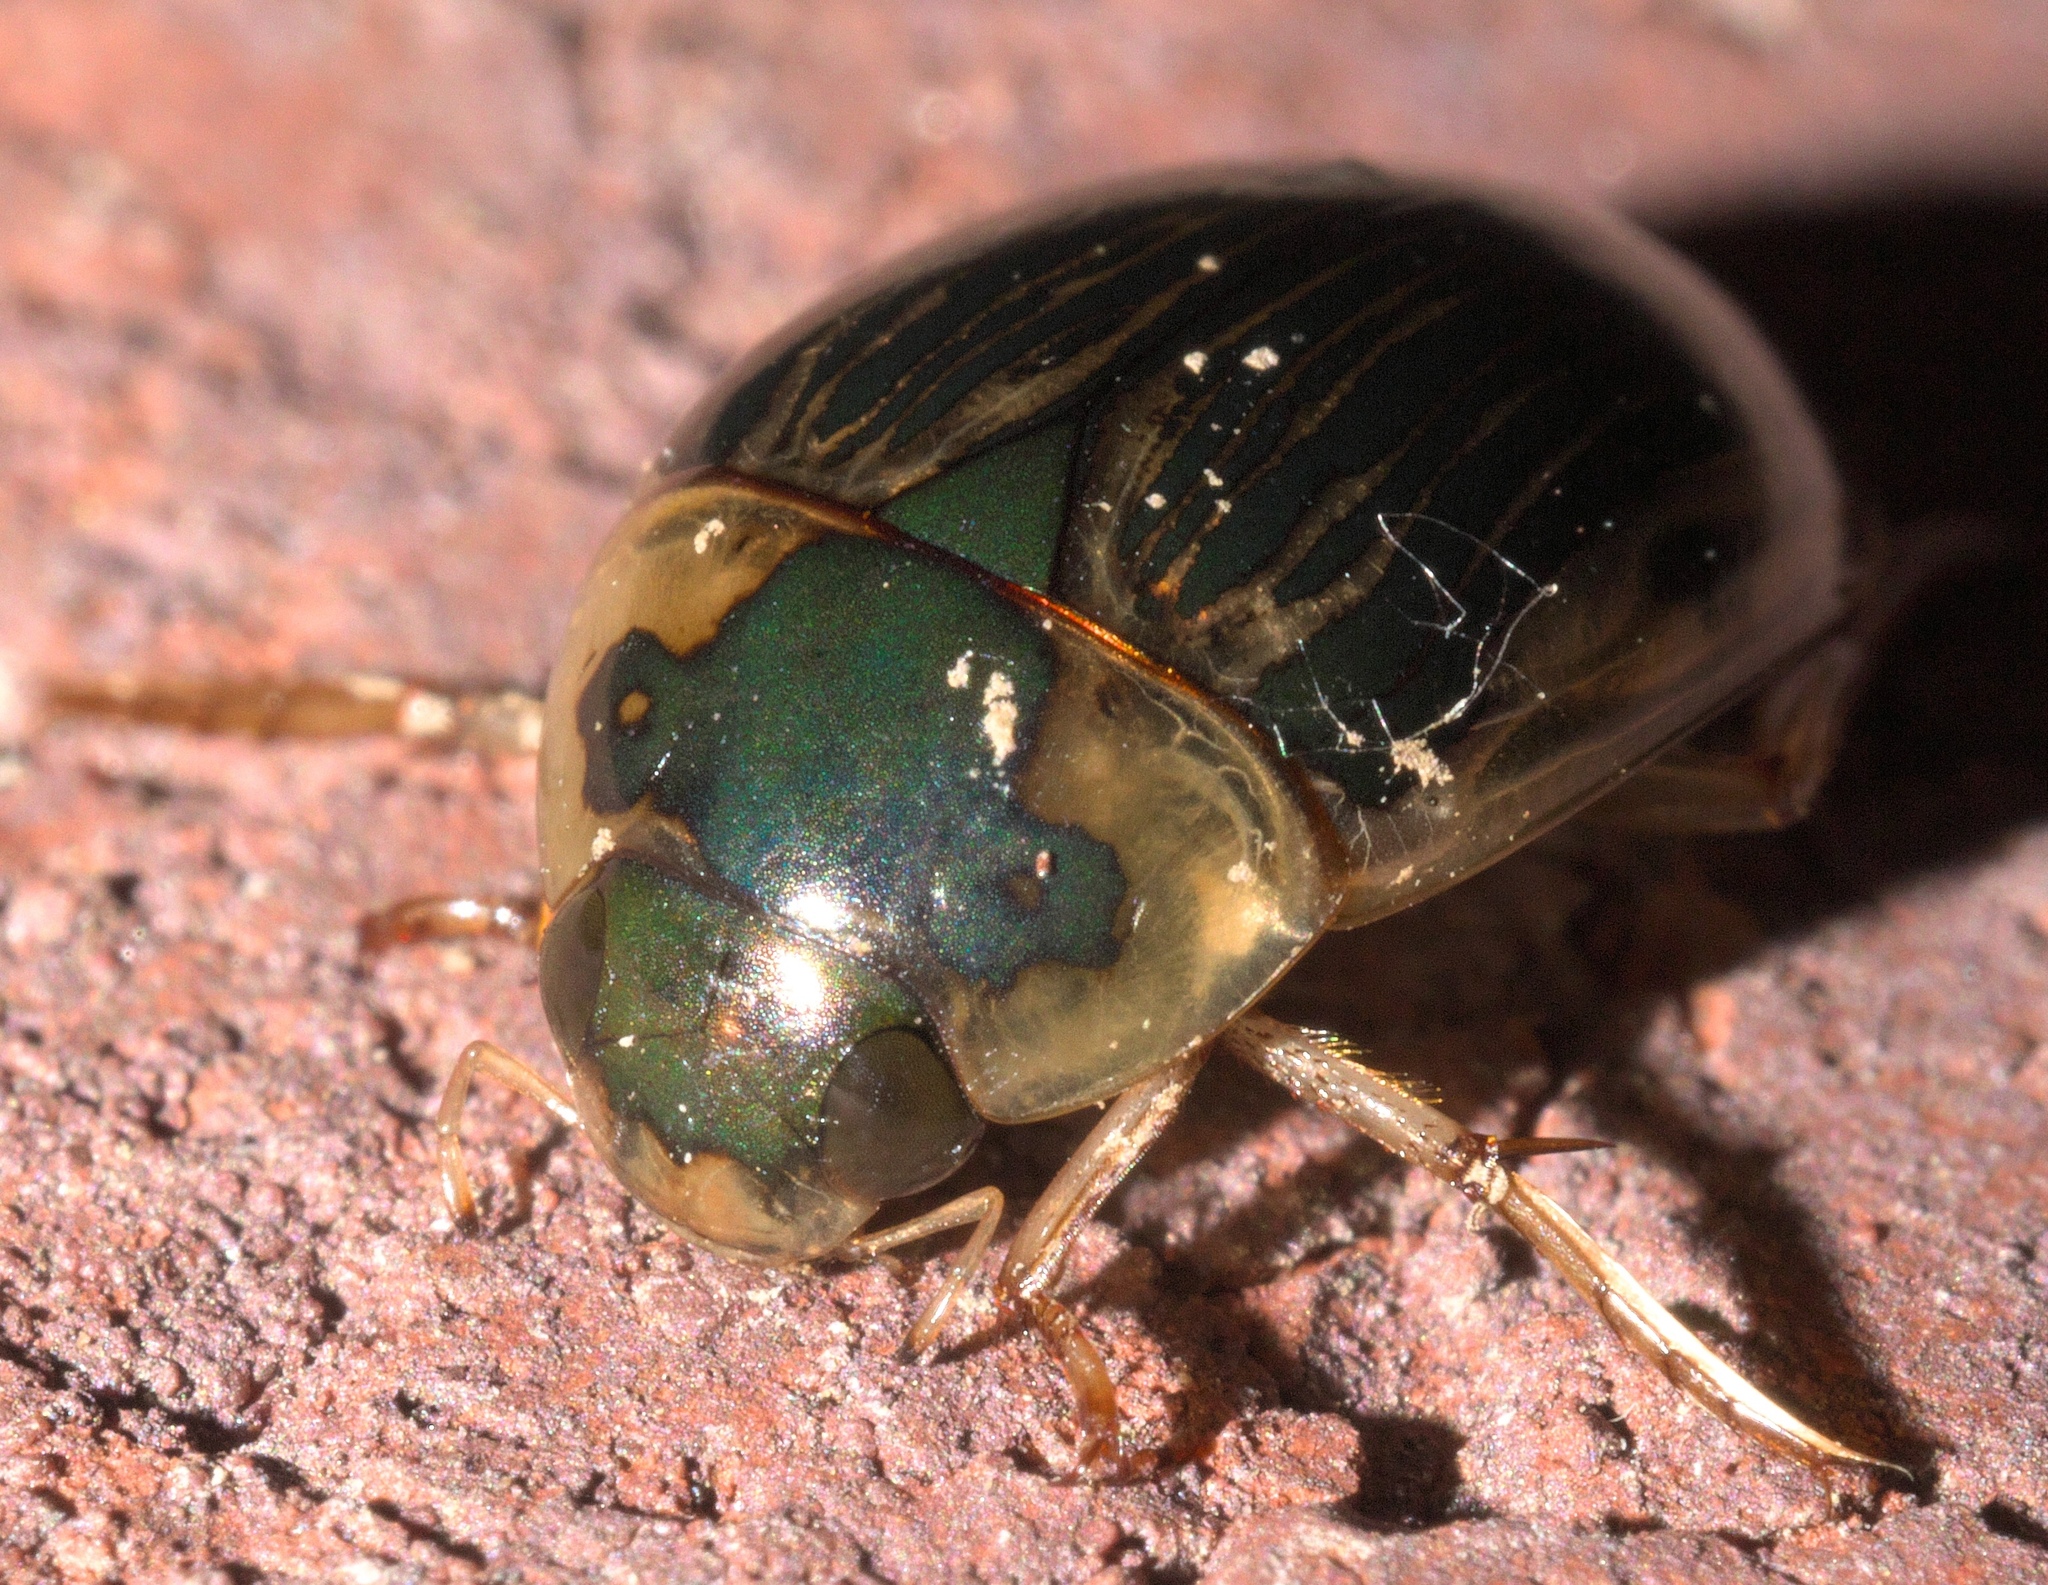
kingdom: Animalia
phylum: Arthropoda
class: Insecta
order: Coleoptera
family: Hydrophilidae
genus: Tropisternus
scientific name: Tropisternus collaris
